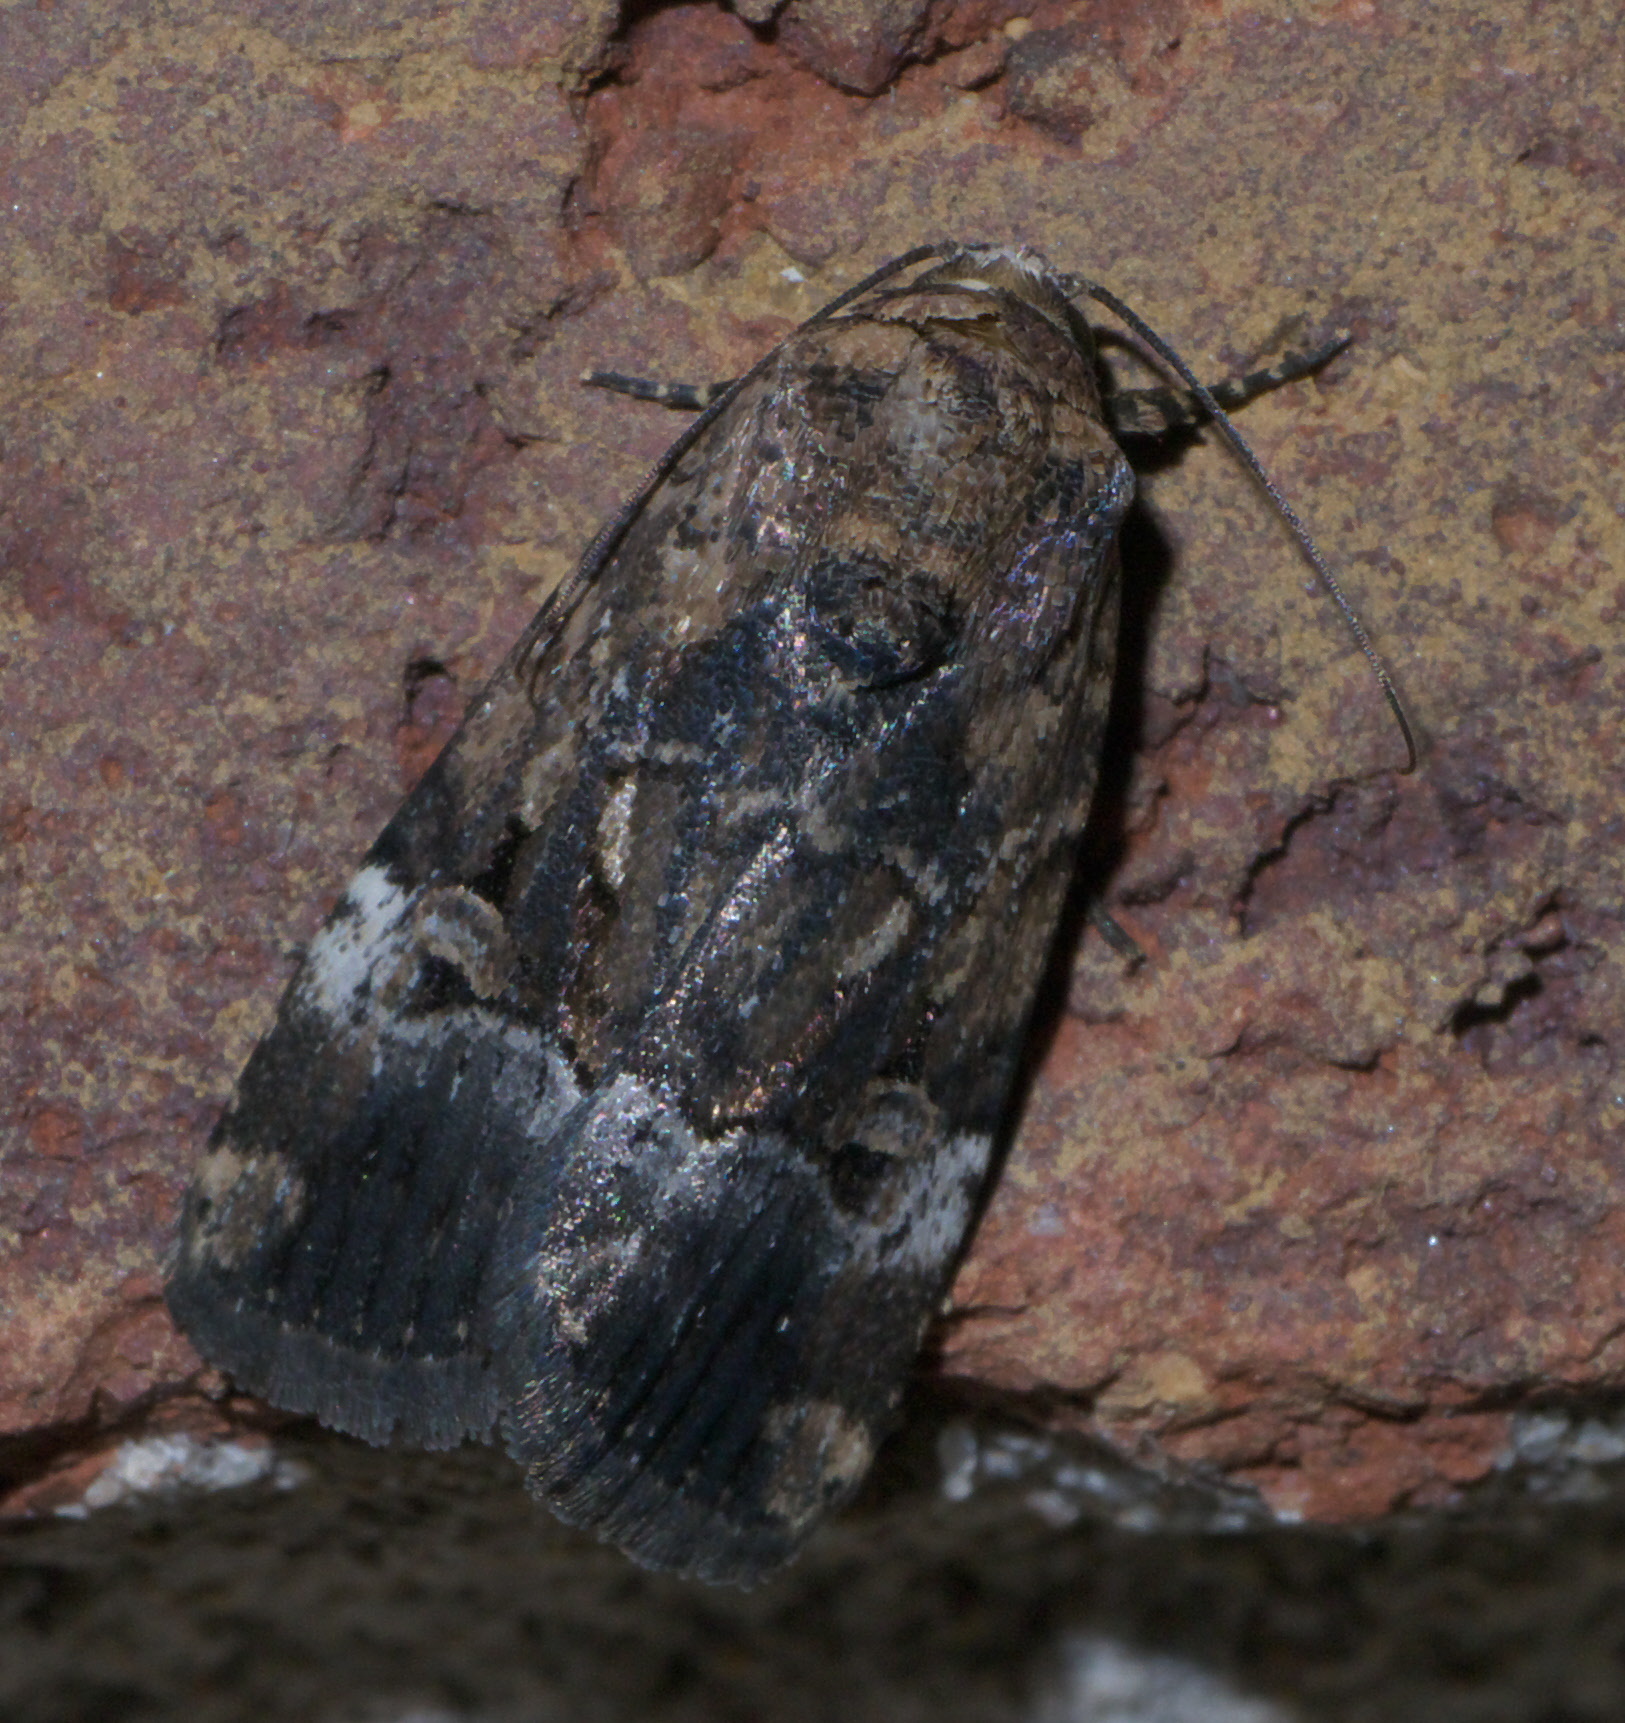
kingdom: Animalia
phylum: Arthropoda
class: Insecta
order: Lepidoptera
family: Noctuidae
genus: Elaphria
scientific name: Elaphria chalcedonia
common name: Chalcedony midget
